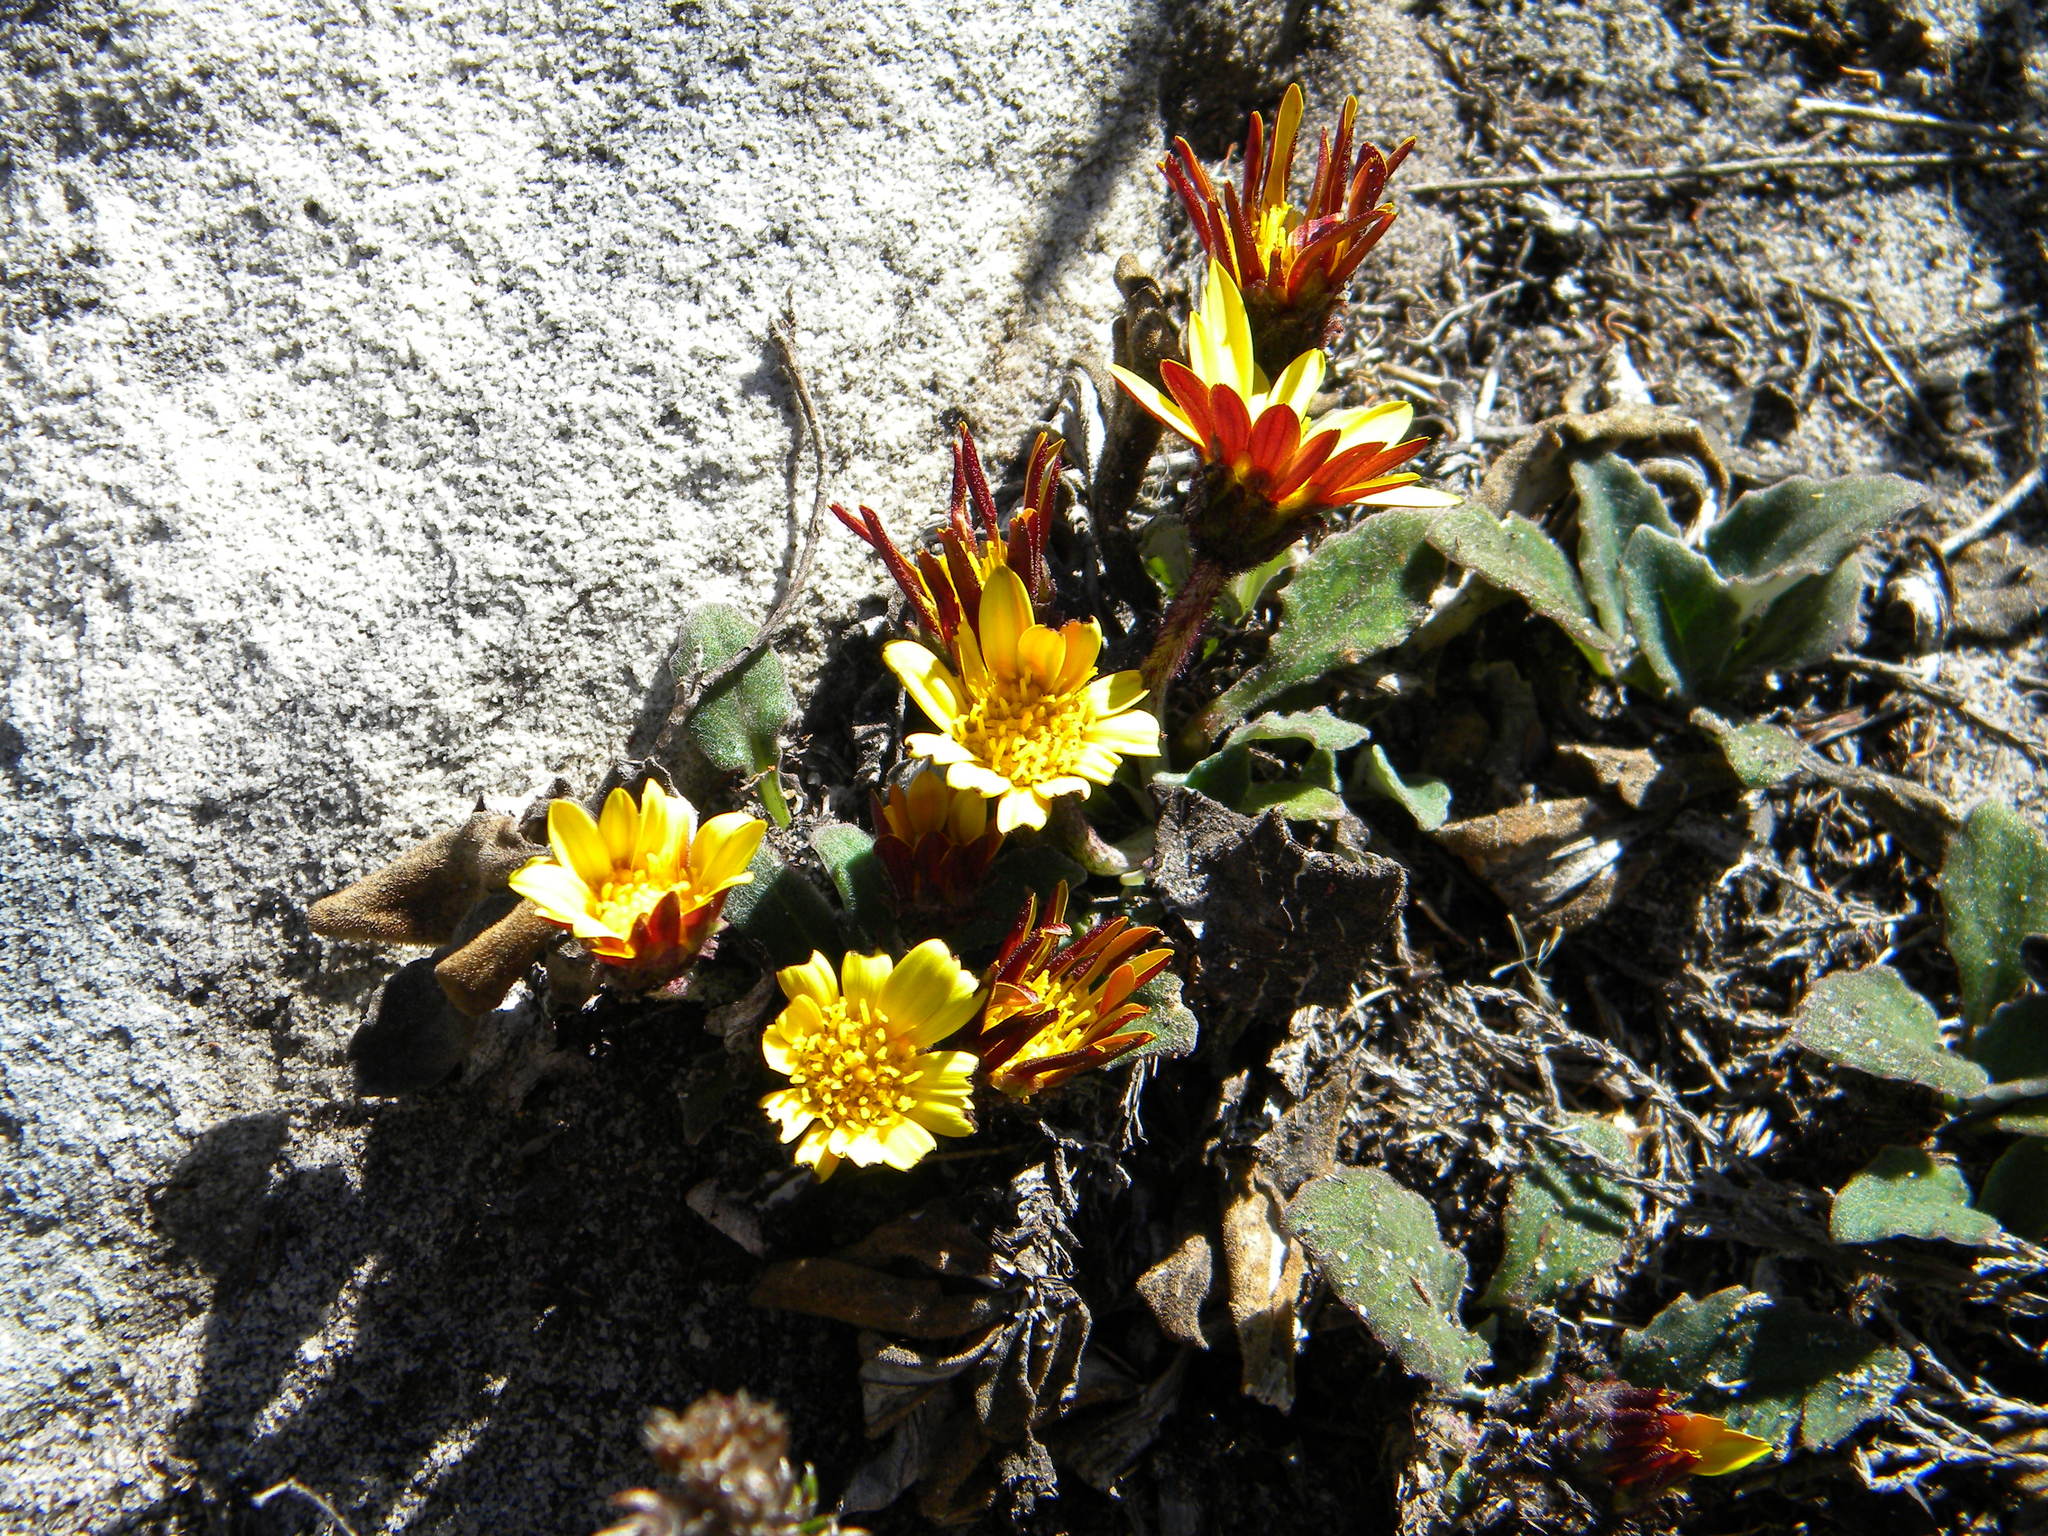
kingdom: Plantae
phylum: Tracheophyta
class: Magnoliopsida
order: Asterales
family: Asteraceae
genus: Haplocarpha
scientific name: Haplocarpha lanata
